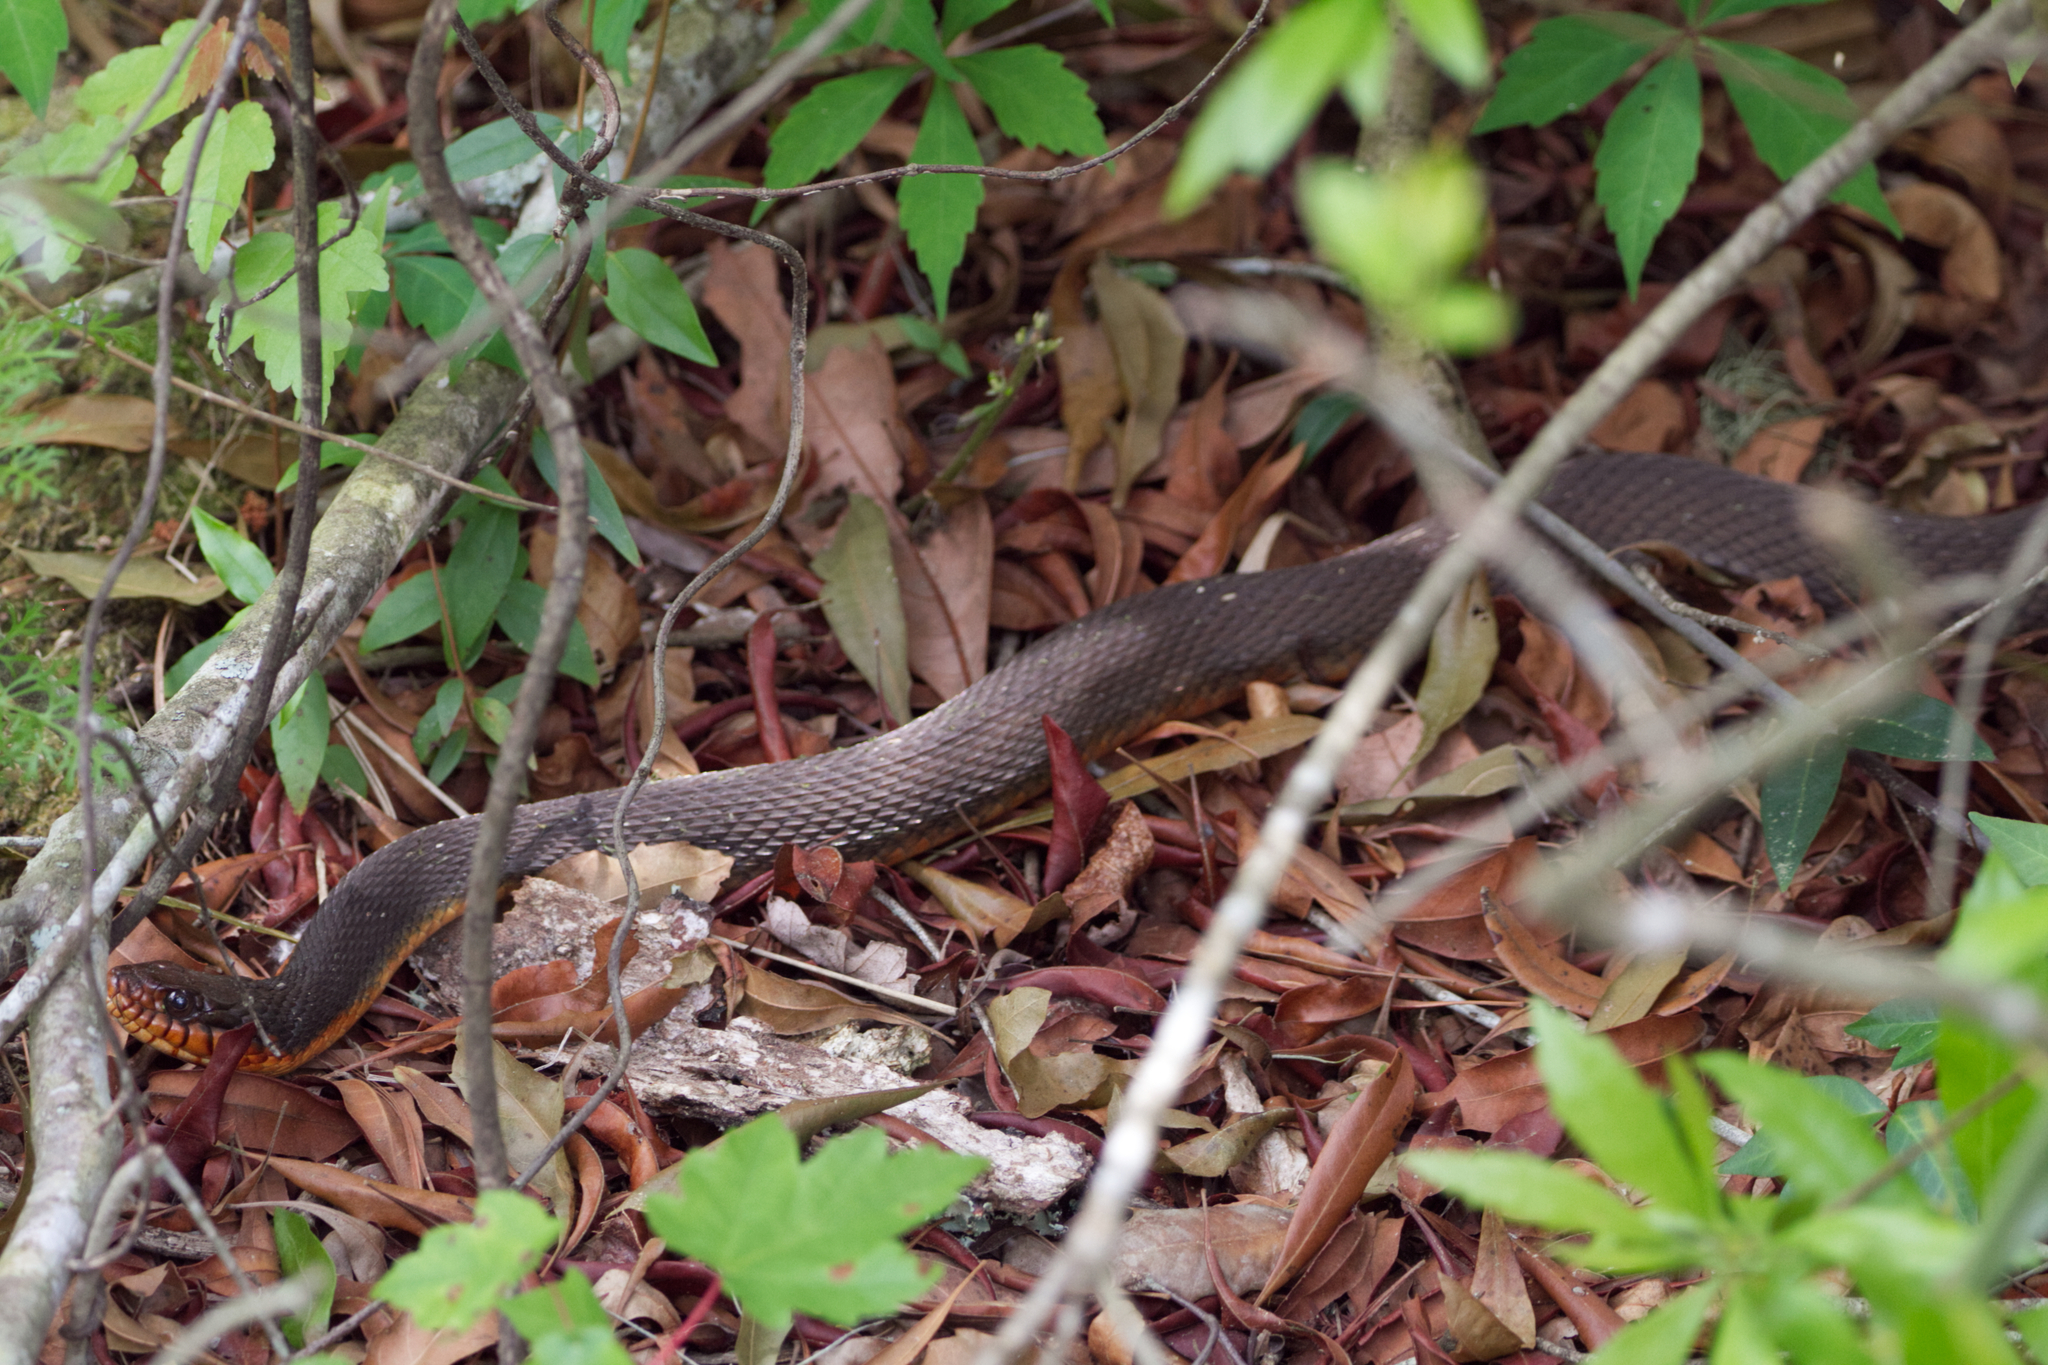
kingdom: Animalia
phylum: Chordata
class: Squamata
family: Colubridae
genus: Nerodia
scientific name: Nerodia erythrogaster
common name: Plainbelly water snake
